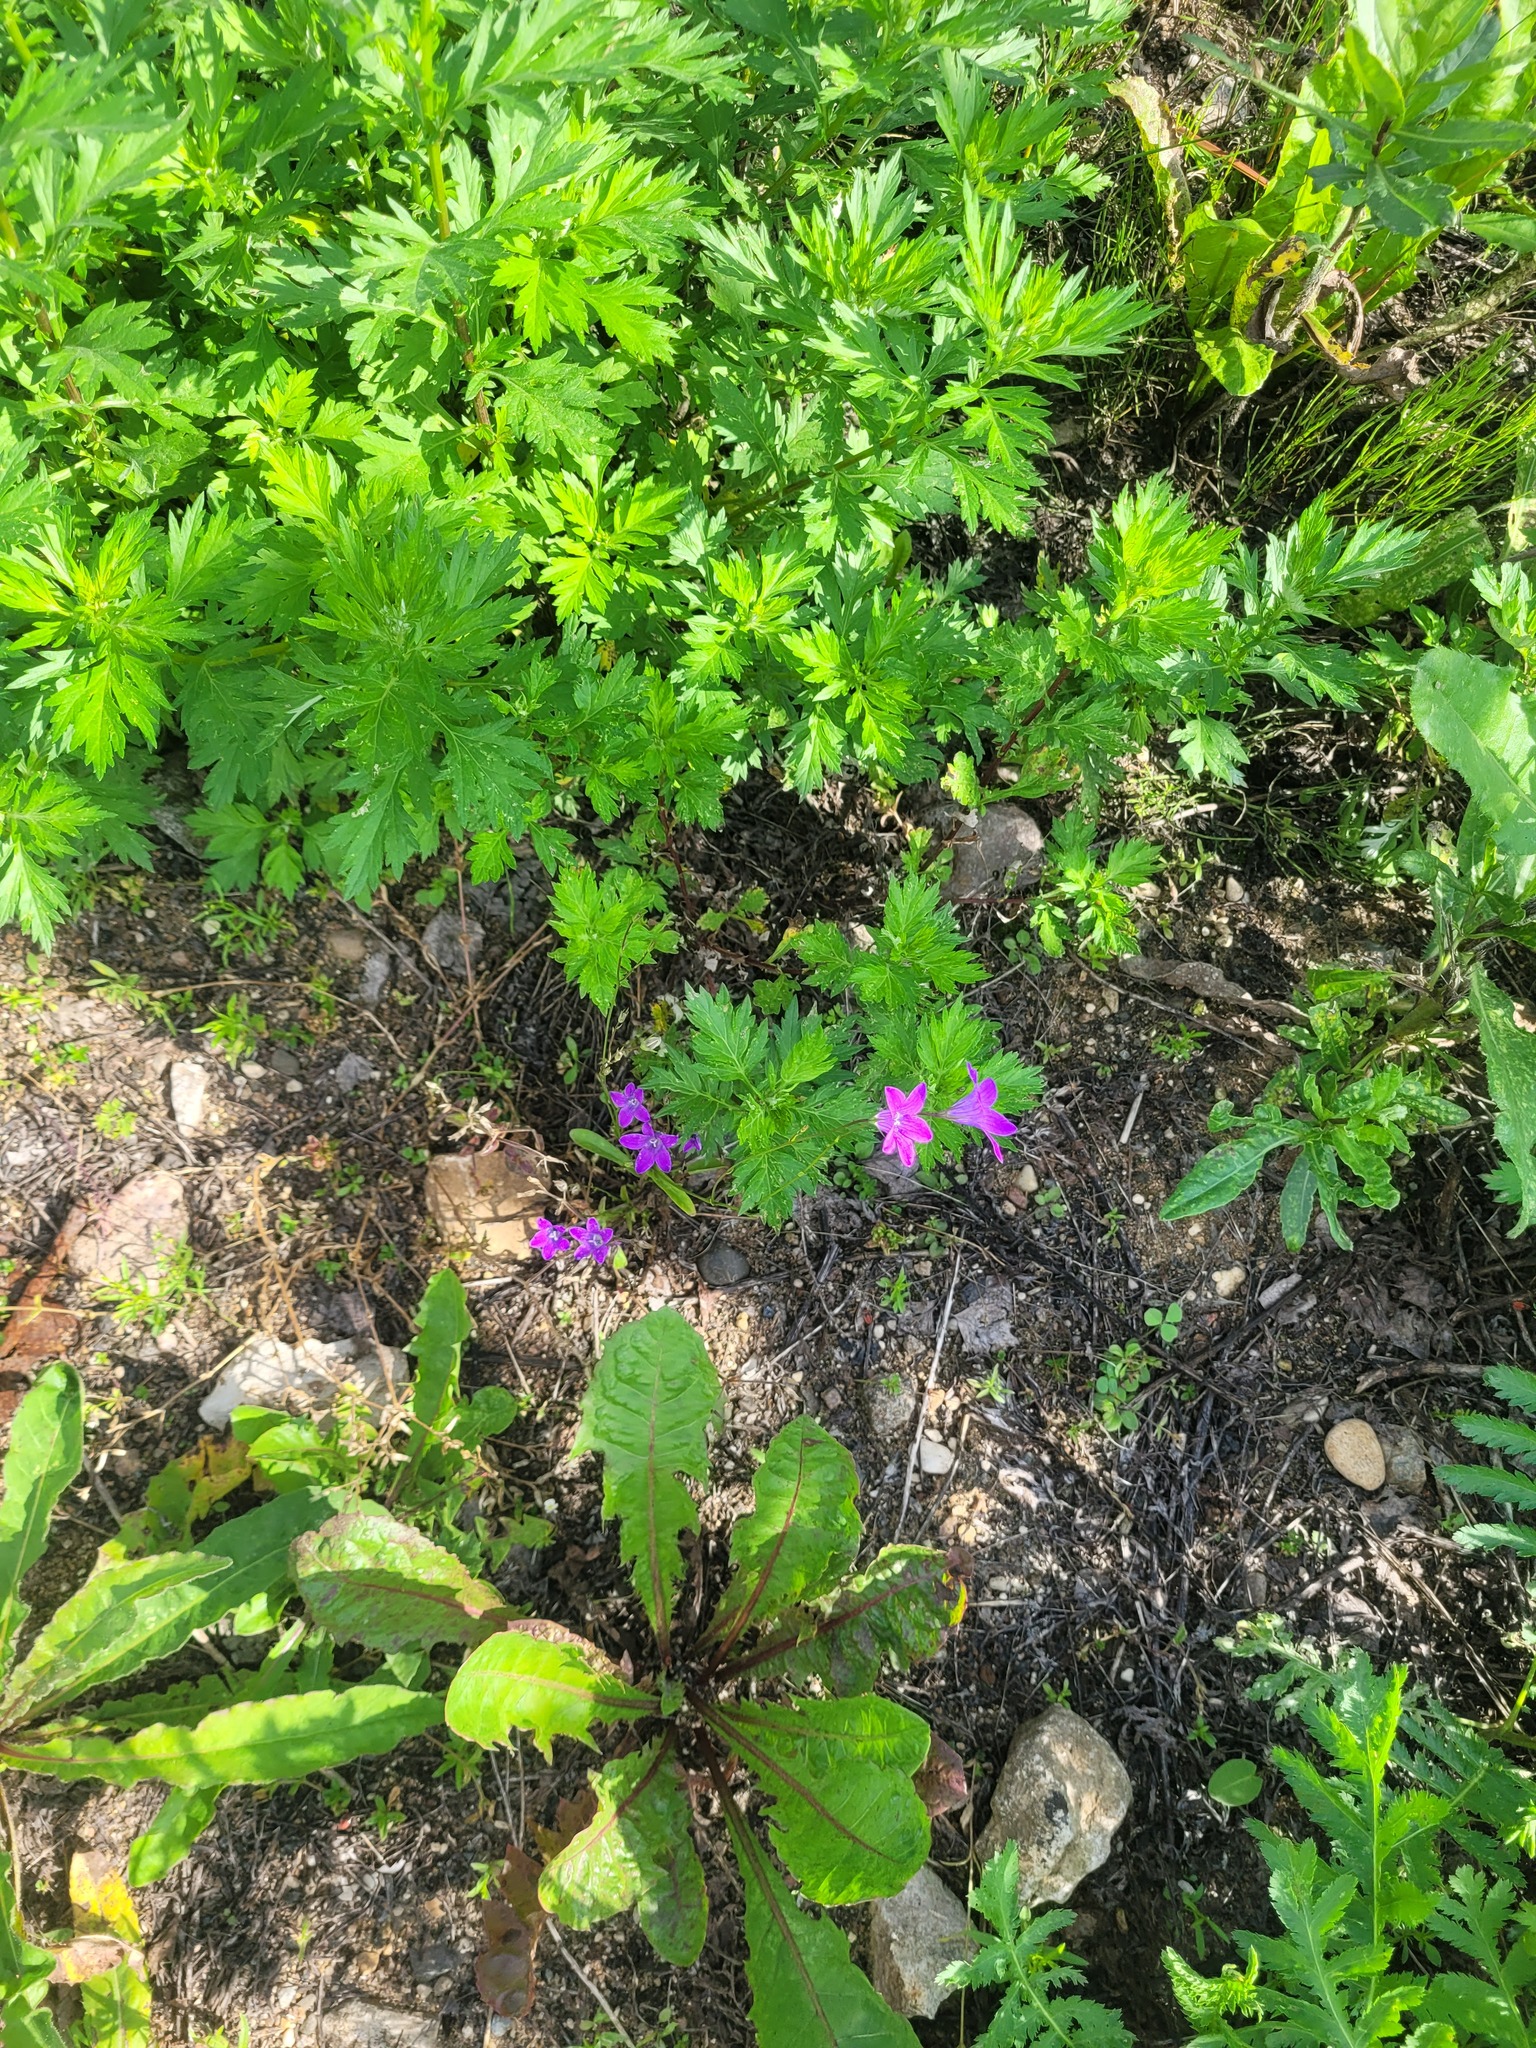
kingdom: Plantae
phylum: Tracheophyta
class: Magnoliopsida
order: Asterales
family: Campanulaceae
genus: Campanula
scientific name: Campanula patula
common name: Spreading bellflower
